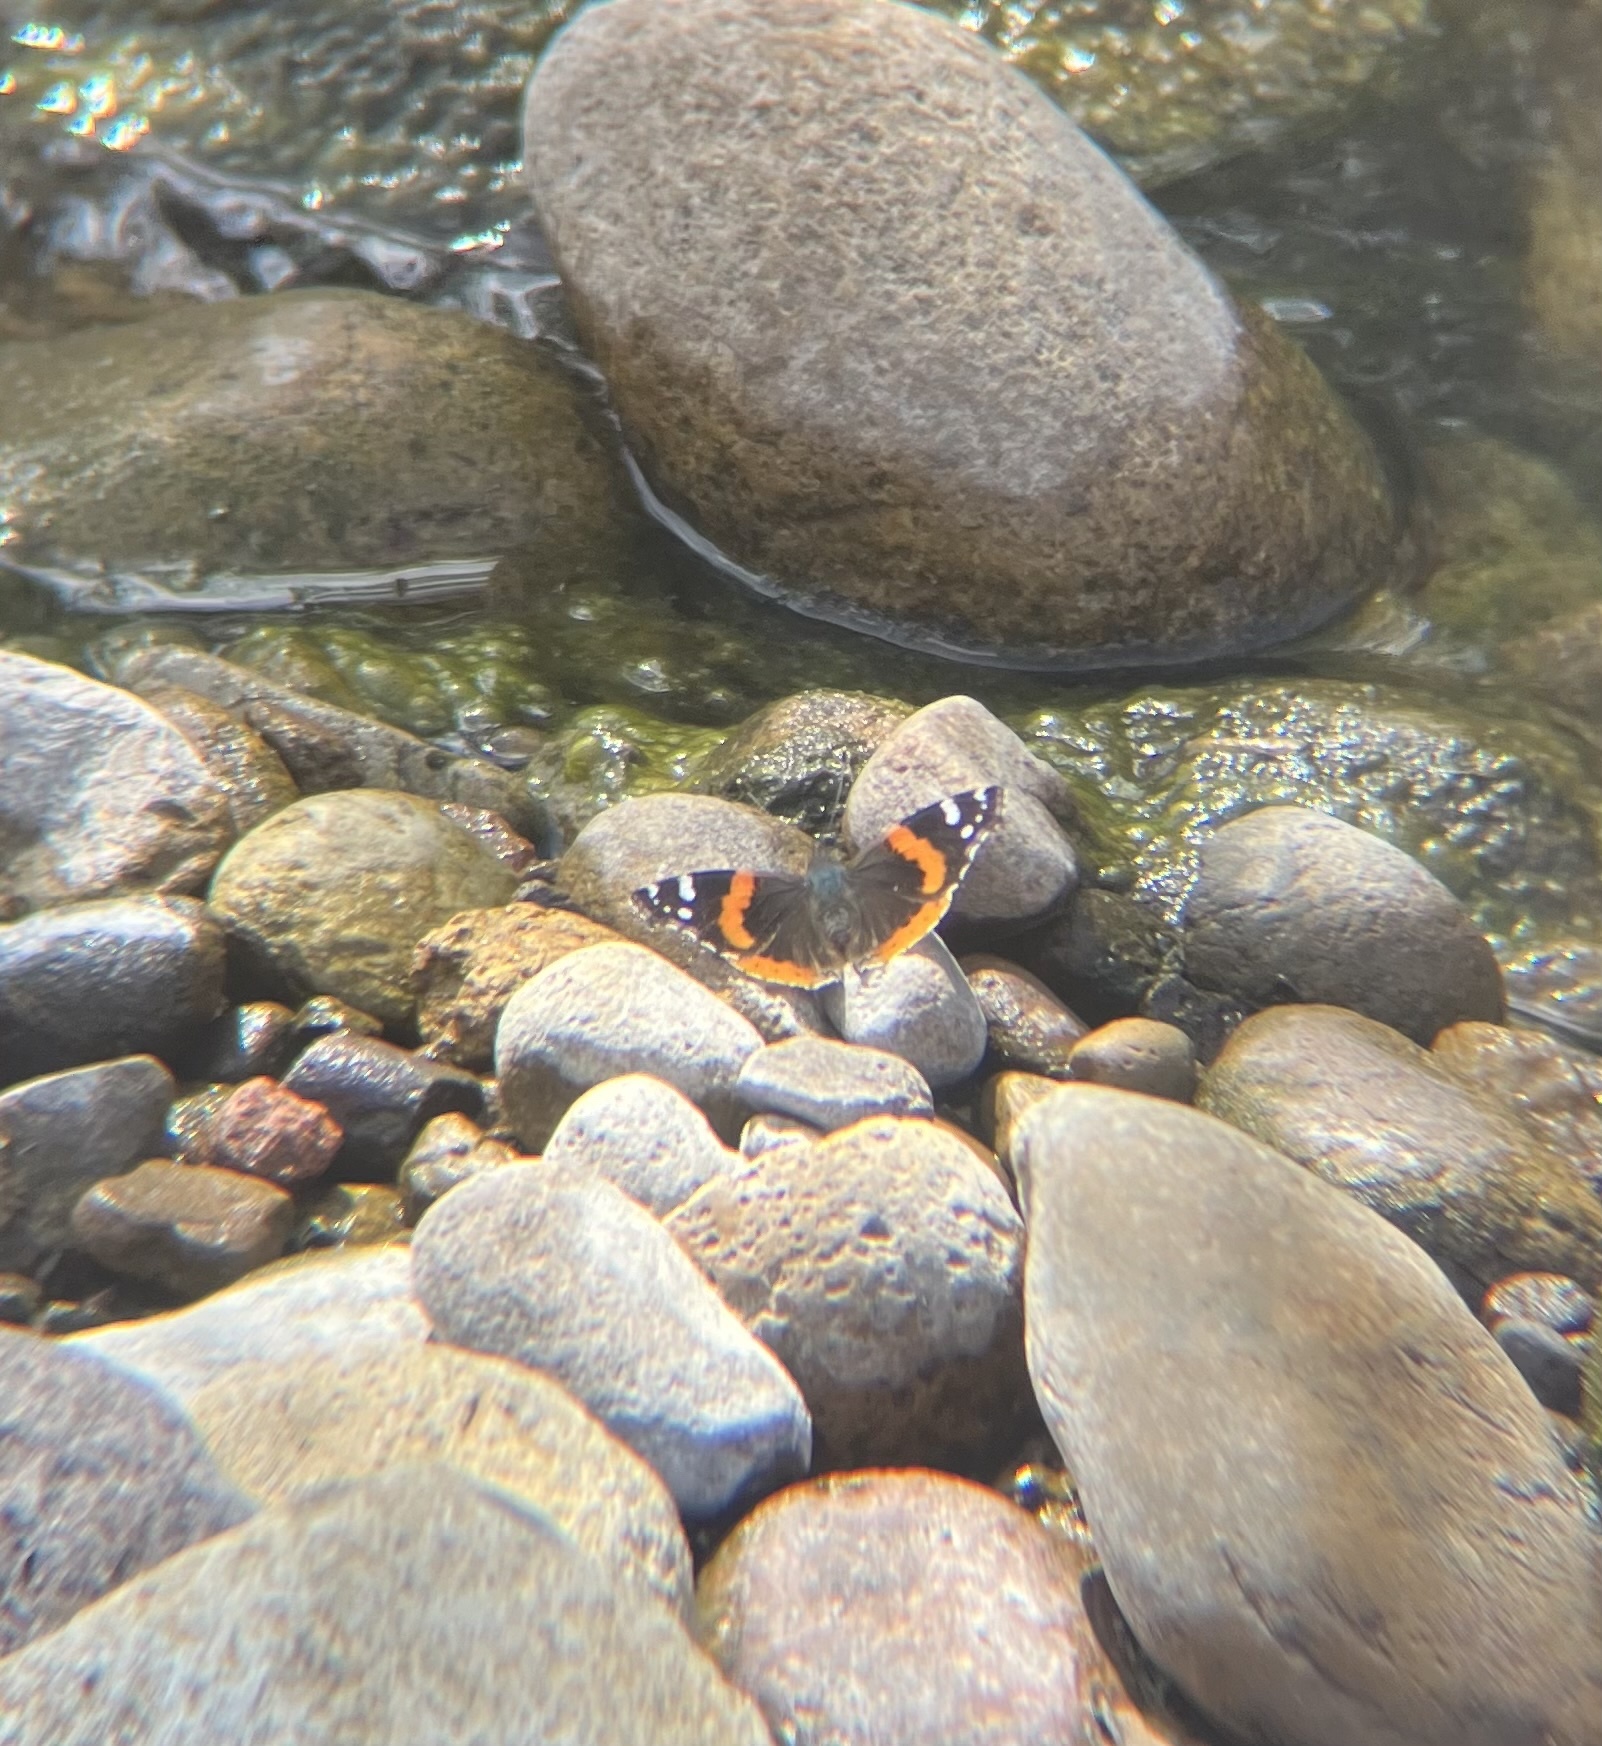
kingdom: Animalia
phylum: Arthropoda
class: Insecta
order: Lepidoptera
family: Nymphalidae
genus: Vanessa
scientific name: Vanessa atalanta
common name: Red admiral
